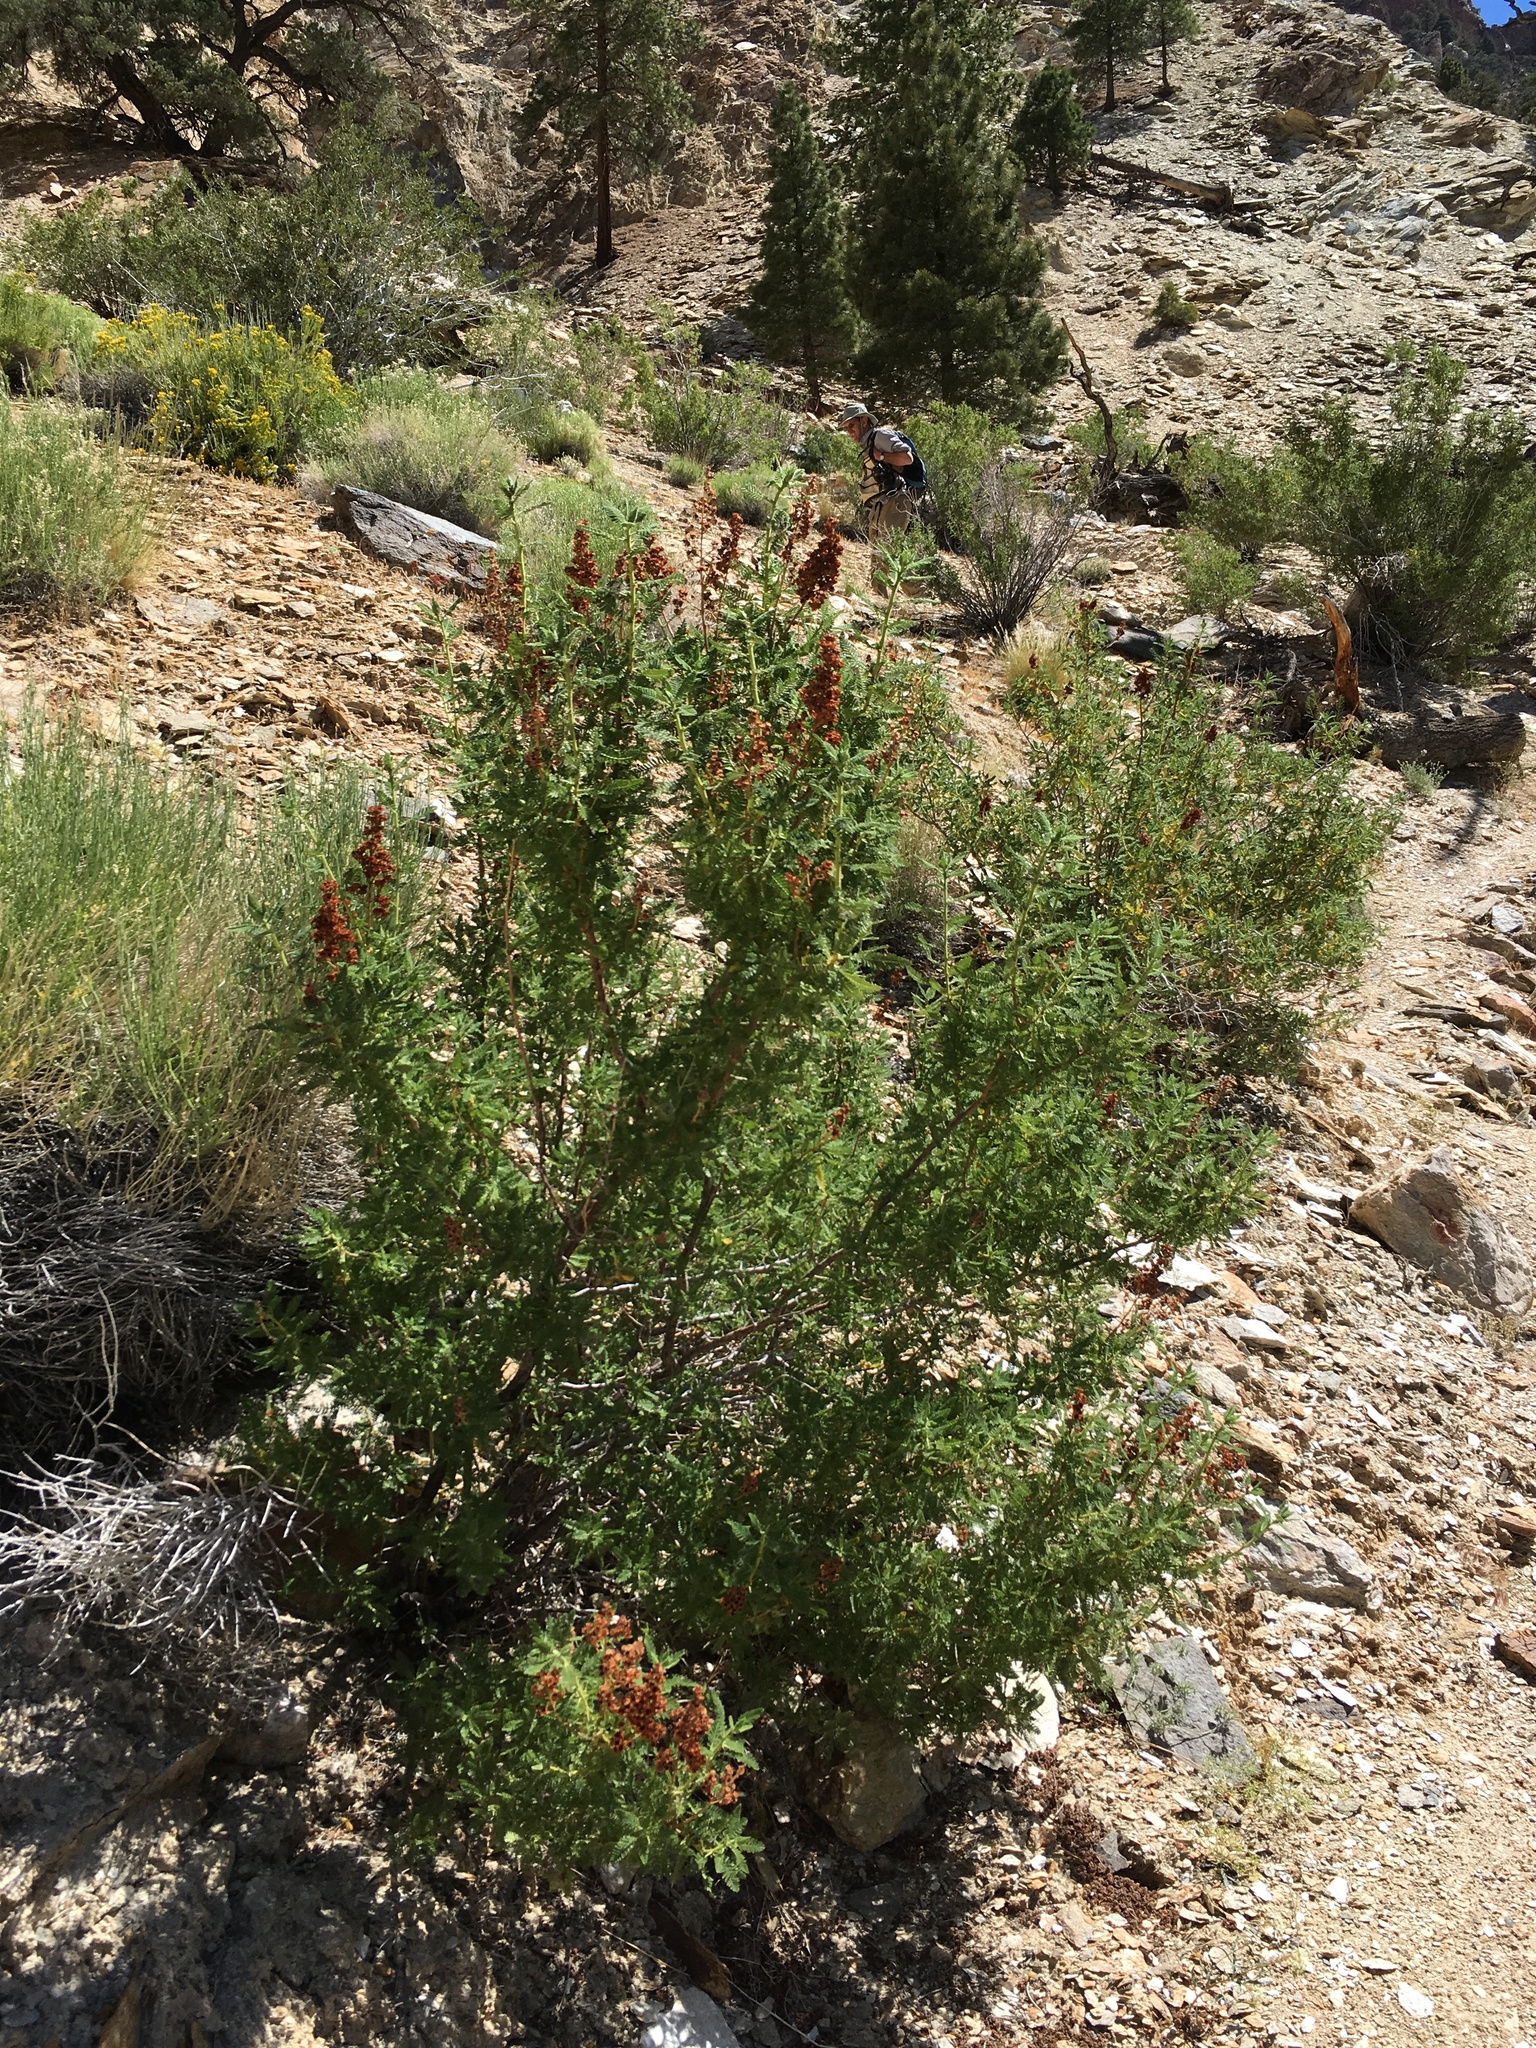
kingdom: Plantae
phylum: Tracheophyta
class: Magnoliopsida
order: Rosales
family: Rosaceae
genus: Chamaebatiaria
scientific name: Chamaebatiaria millefolium
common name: Fernbush
